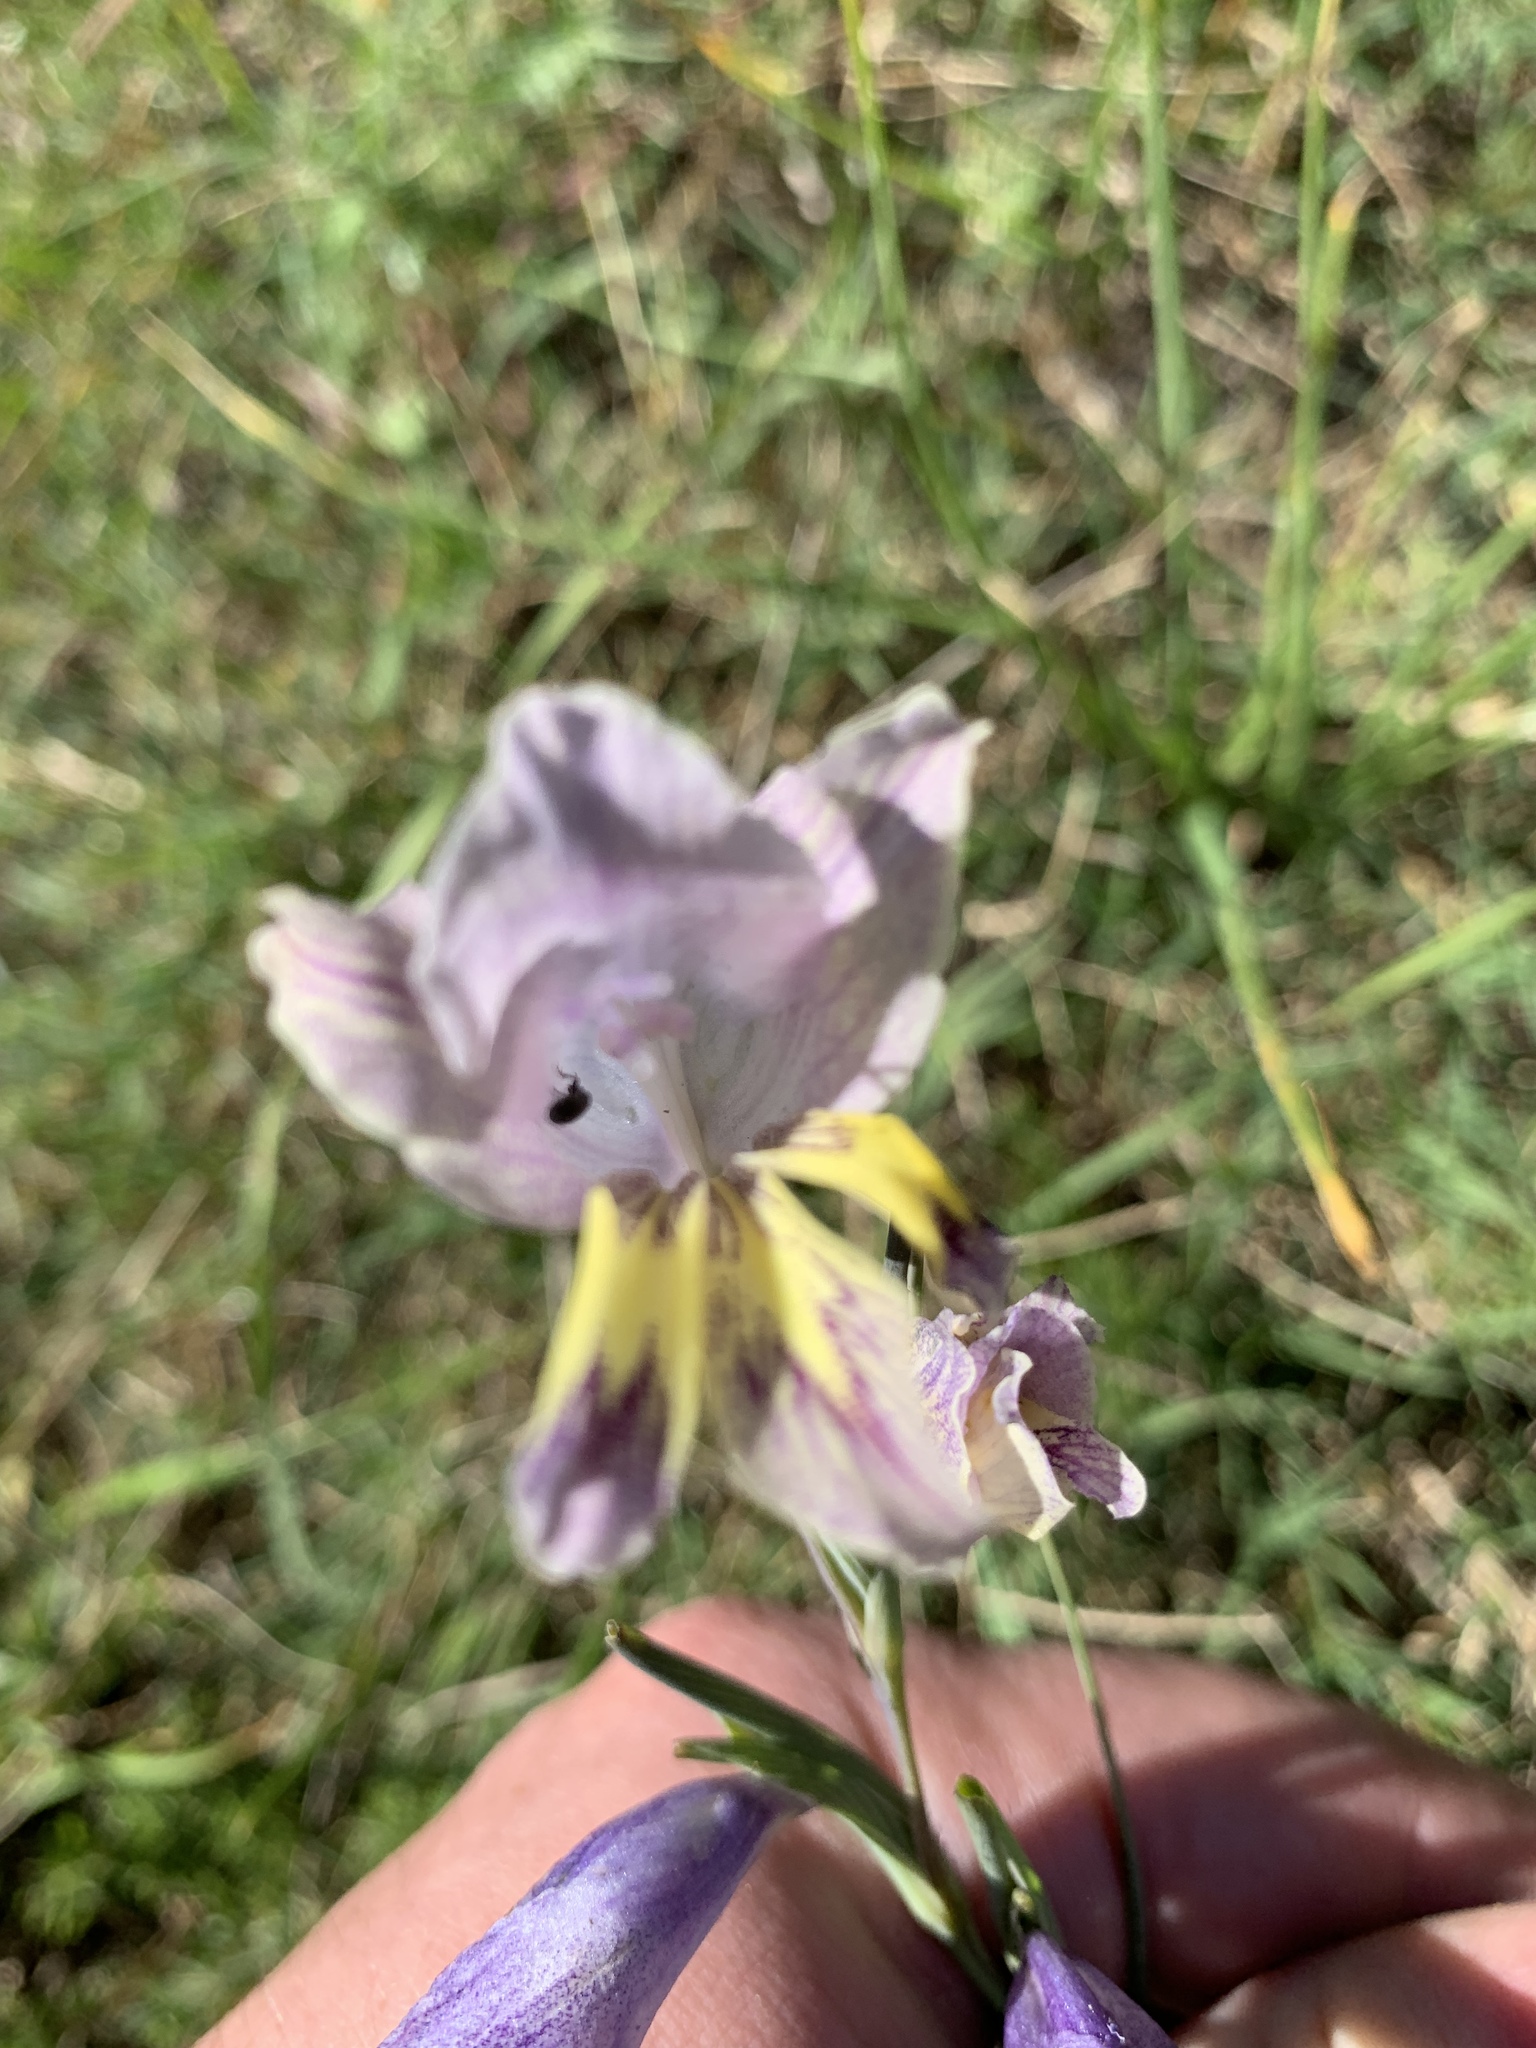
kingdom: Plantae
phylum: Tracheophyta
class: Liliopsida
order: Asparagales
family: Iridaceae
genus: Gladiolus
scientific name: Gladiolus carinatus
